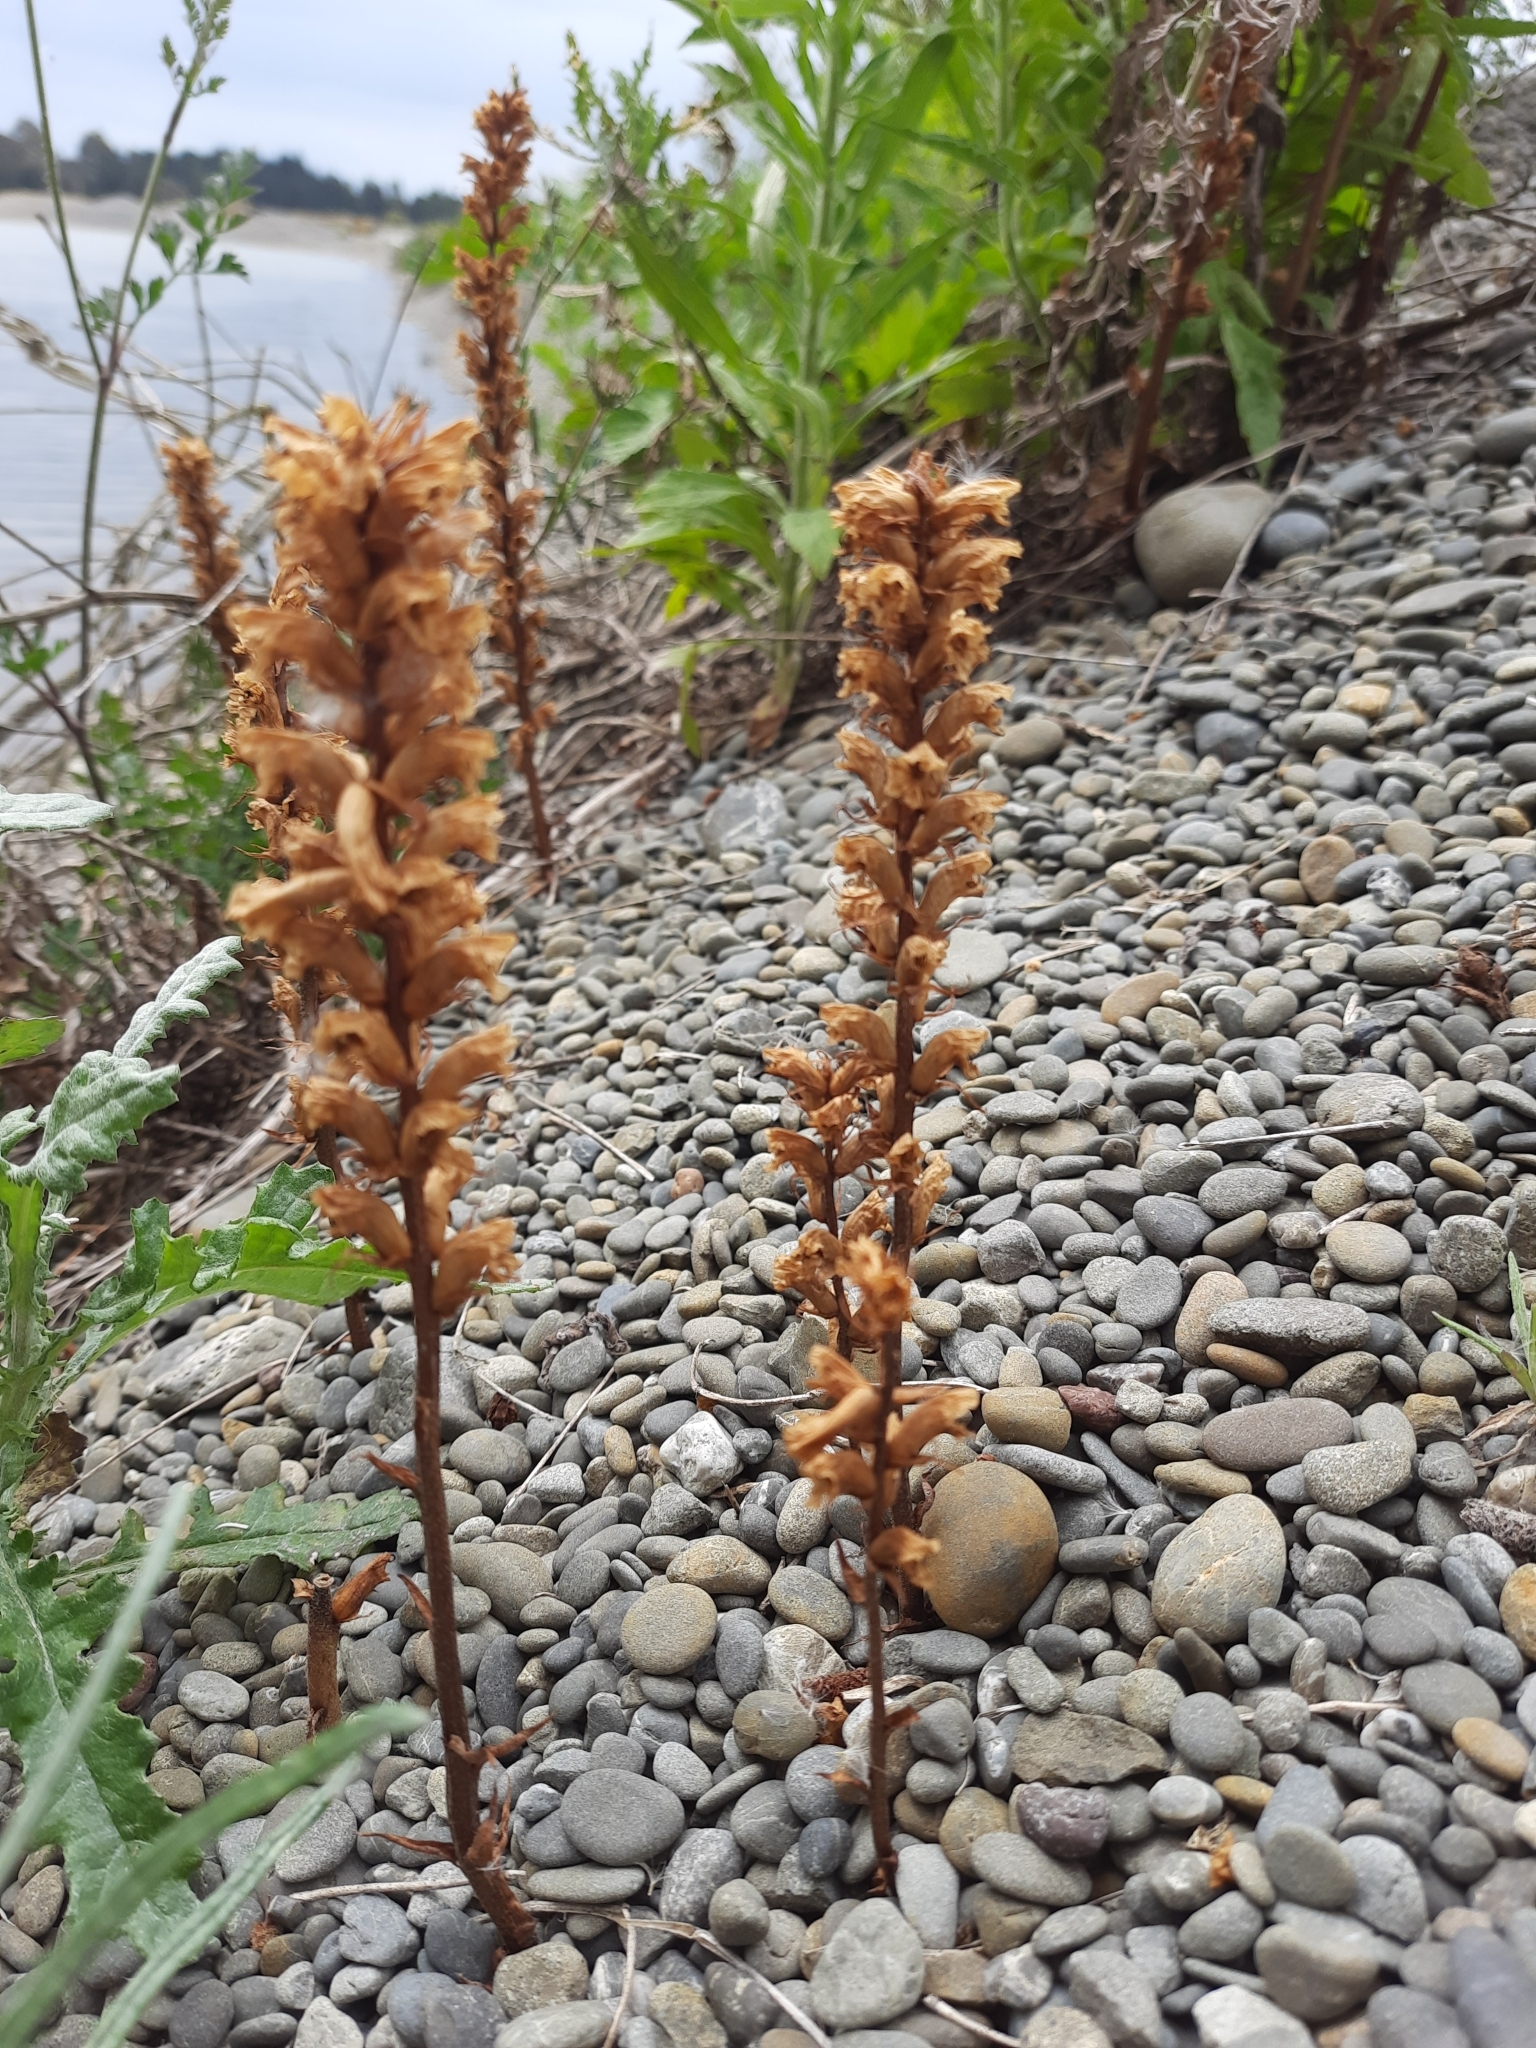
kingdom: Plantae
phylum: Tracheophyta
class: Magnoliopsida
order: Lamiales
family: Orobanchaceae
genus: Orobanche
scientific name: Orobanche minor
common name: Common broomrape
